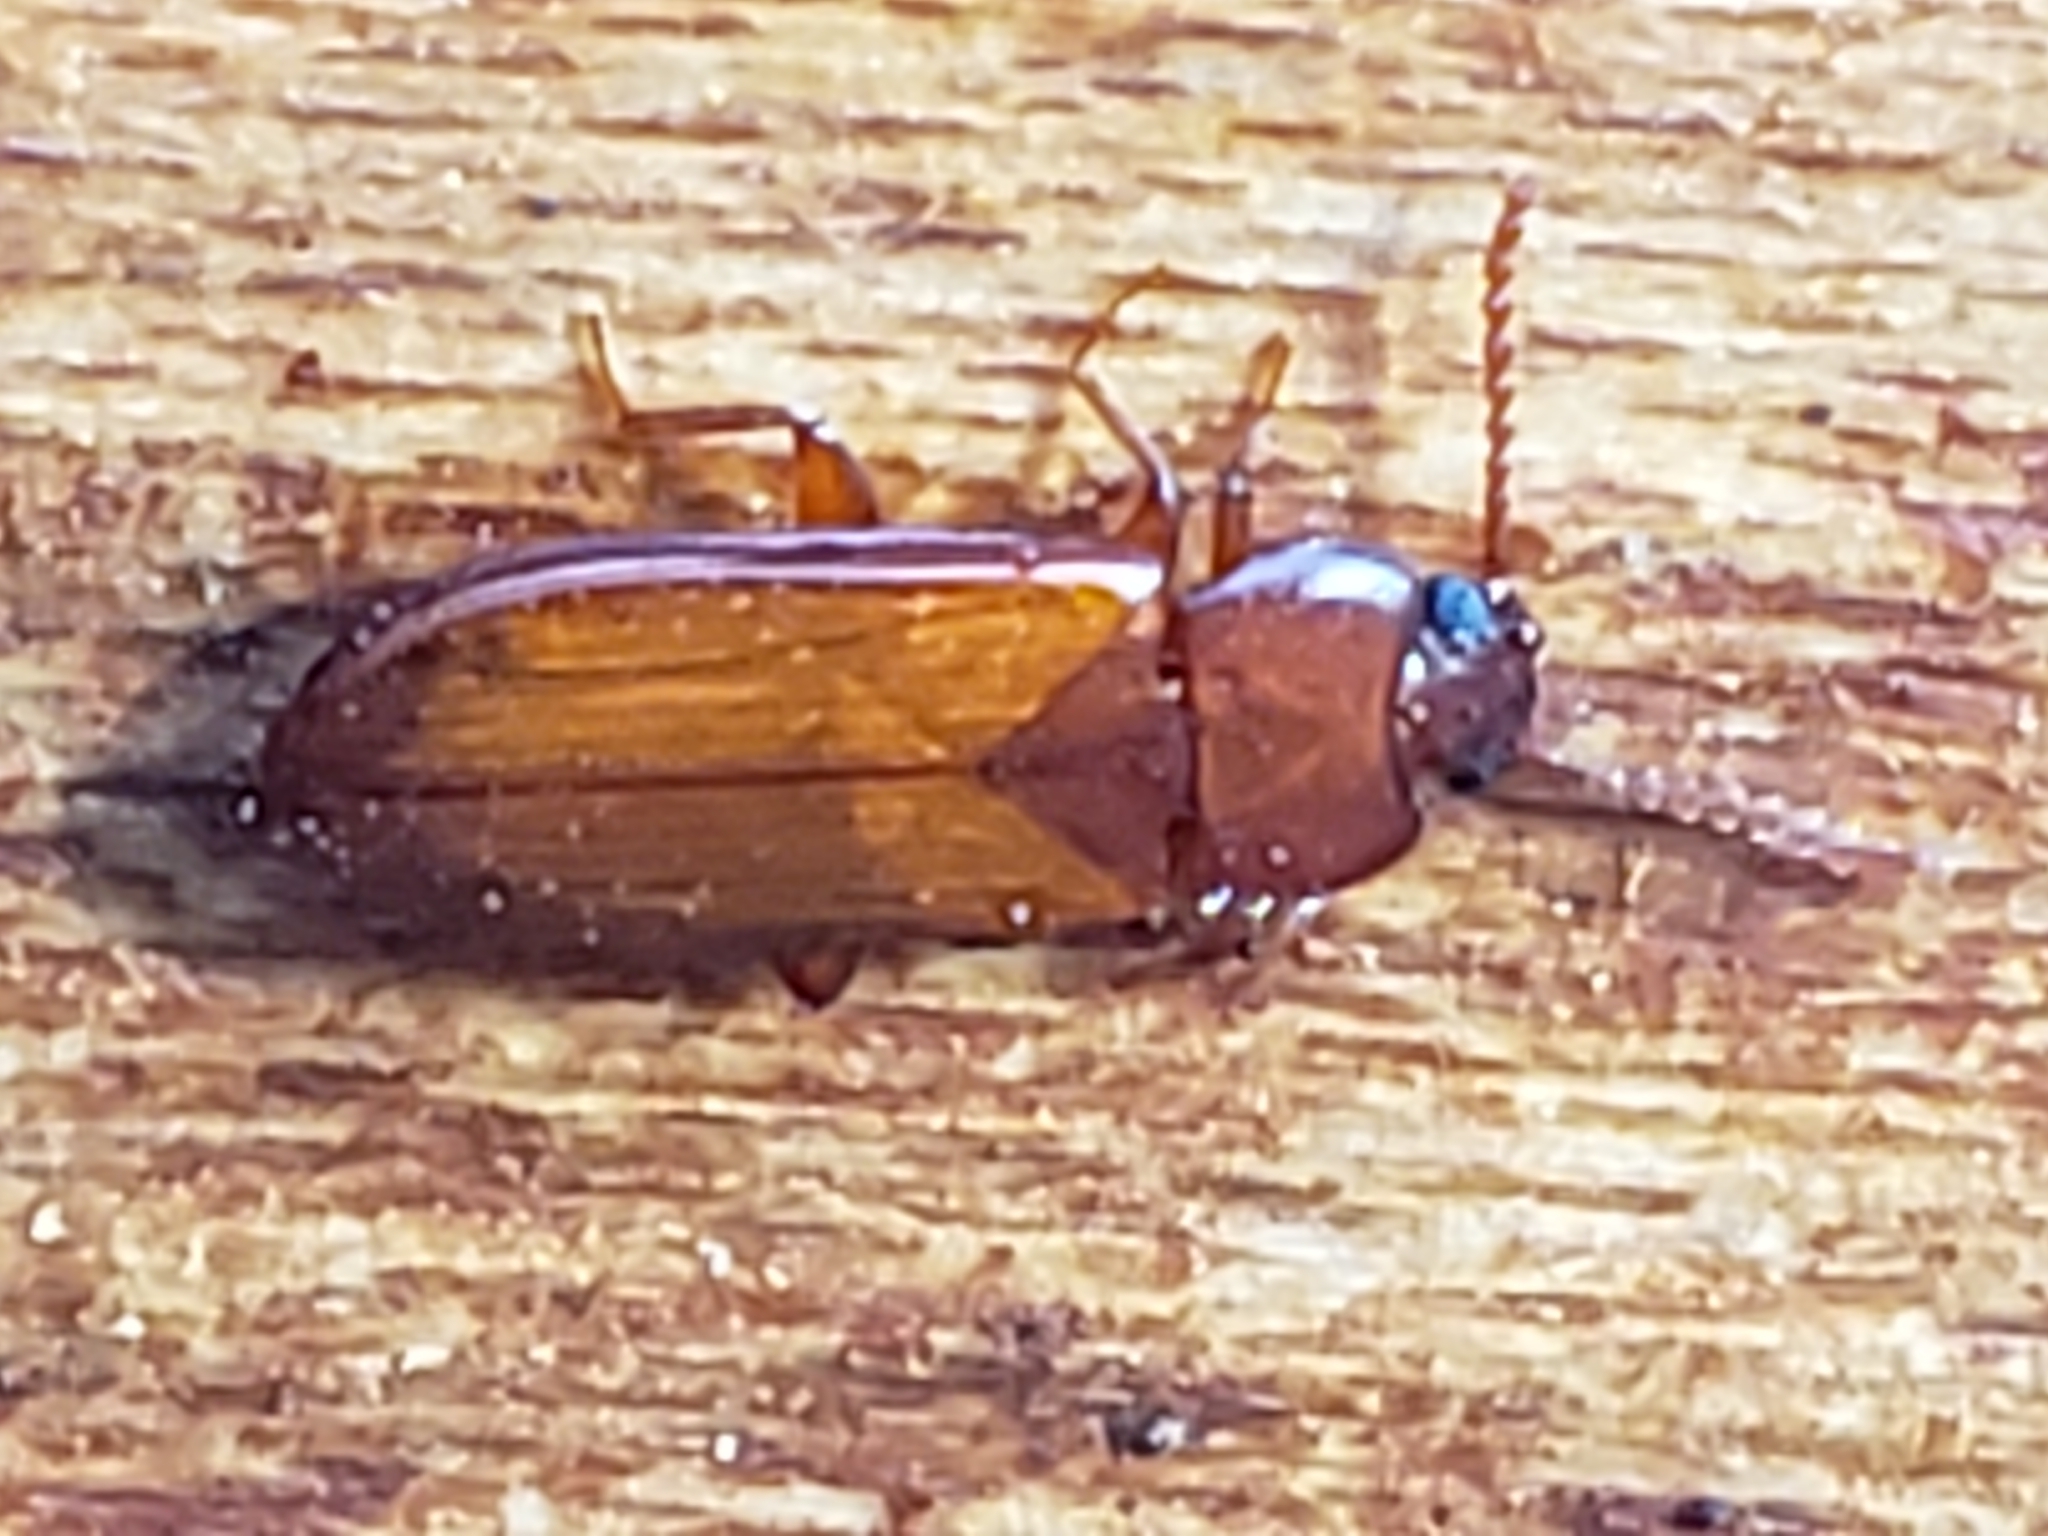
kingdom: Animalia
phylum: Arthropoda
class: Insecta
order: Coleoptera
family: Tenebrionidae
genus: Adelina
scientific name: Adelina pallida
